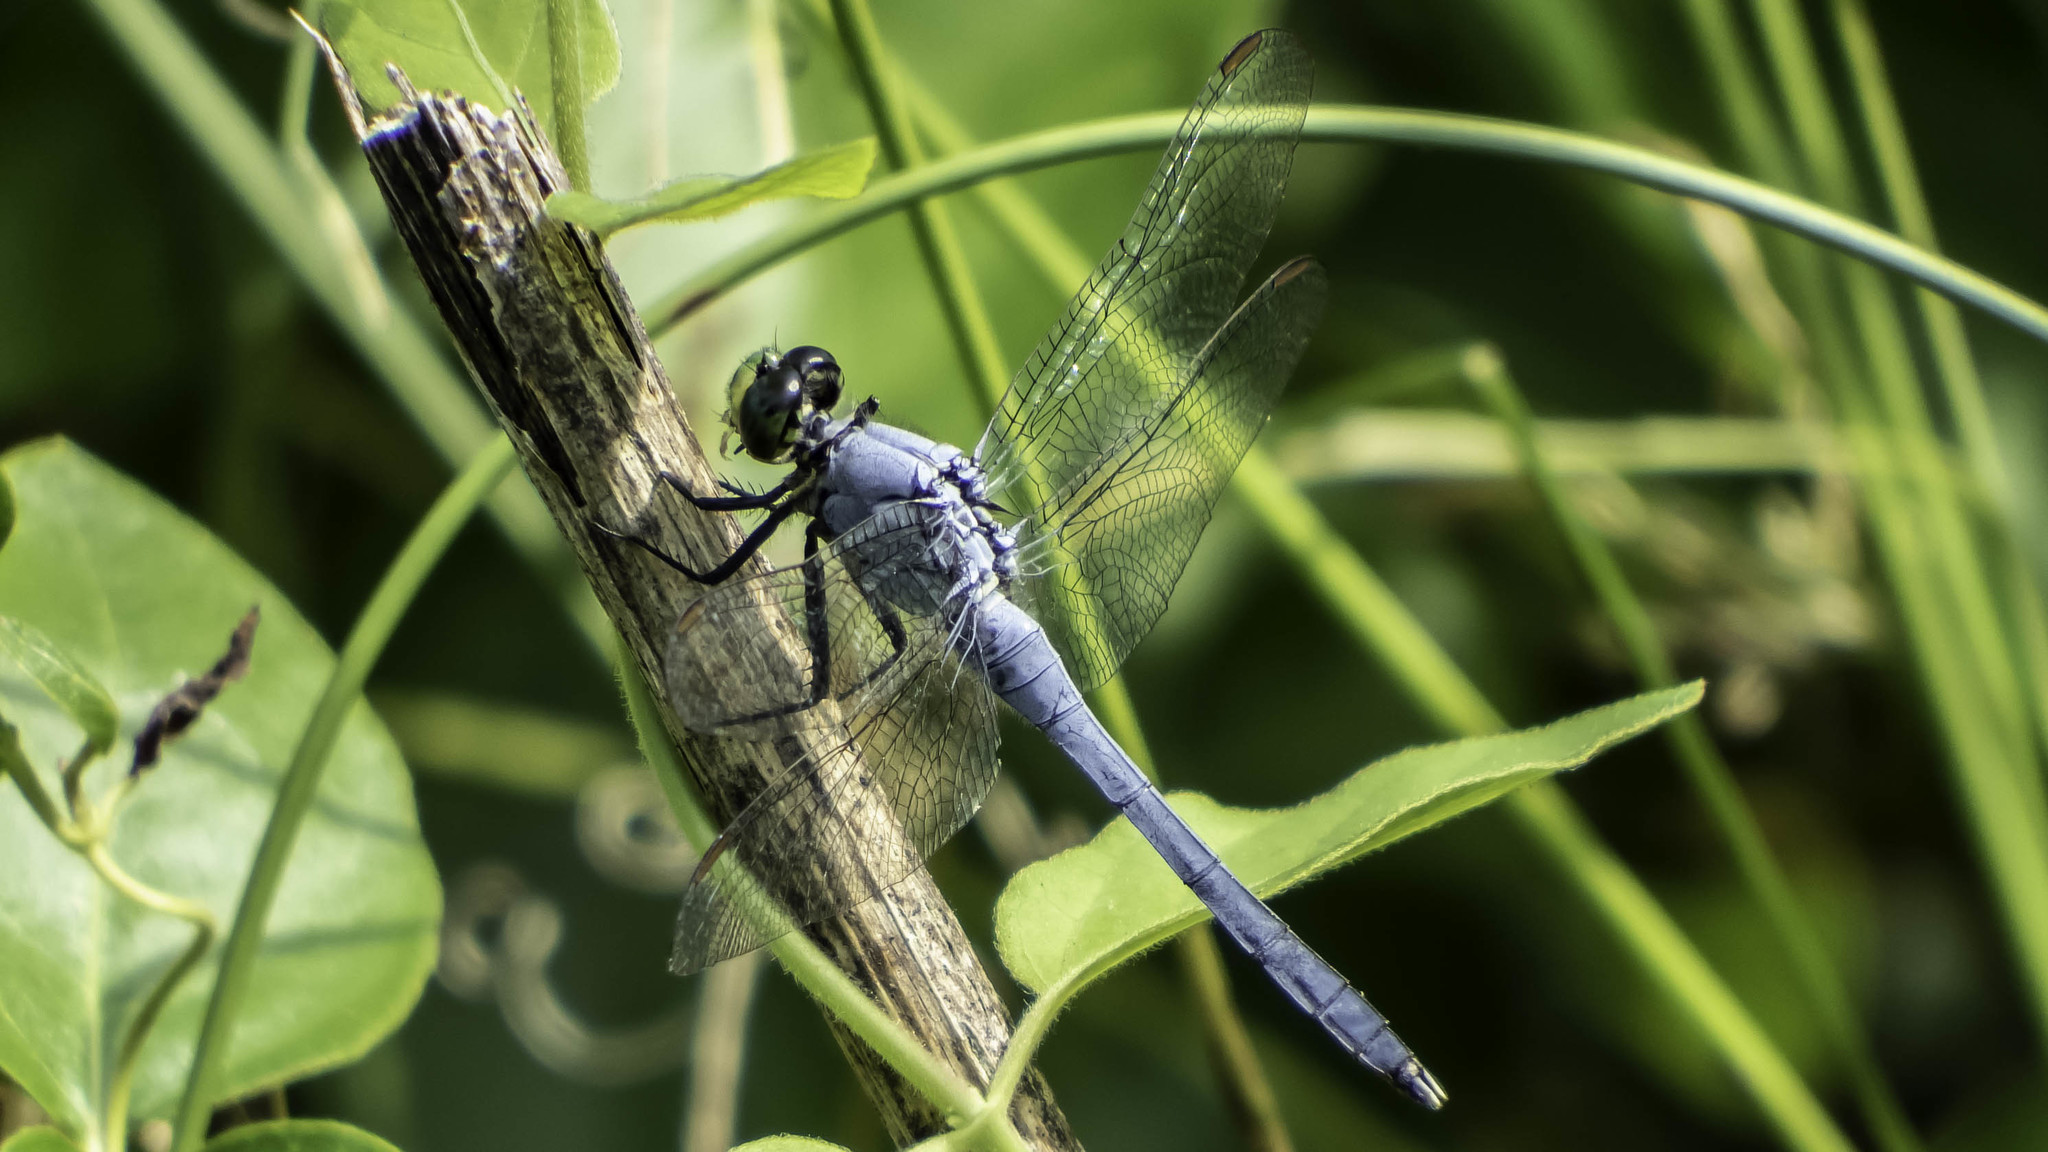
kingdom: Animalia
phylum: Arthropoda
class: Insecta
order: Odonata
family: Libellulidae
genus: Erythemis
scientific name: Erythemis simplicicollis
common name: Eastern pondhawk
